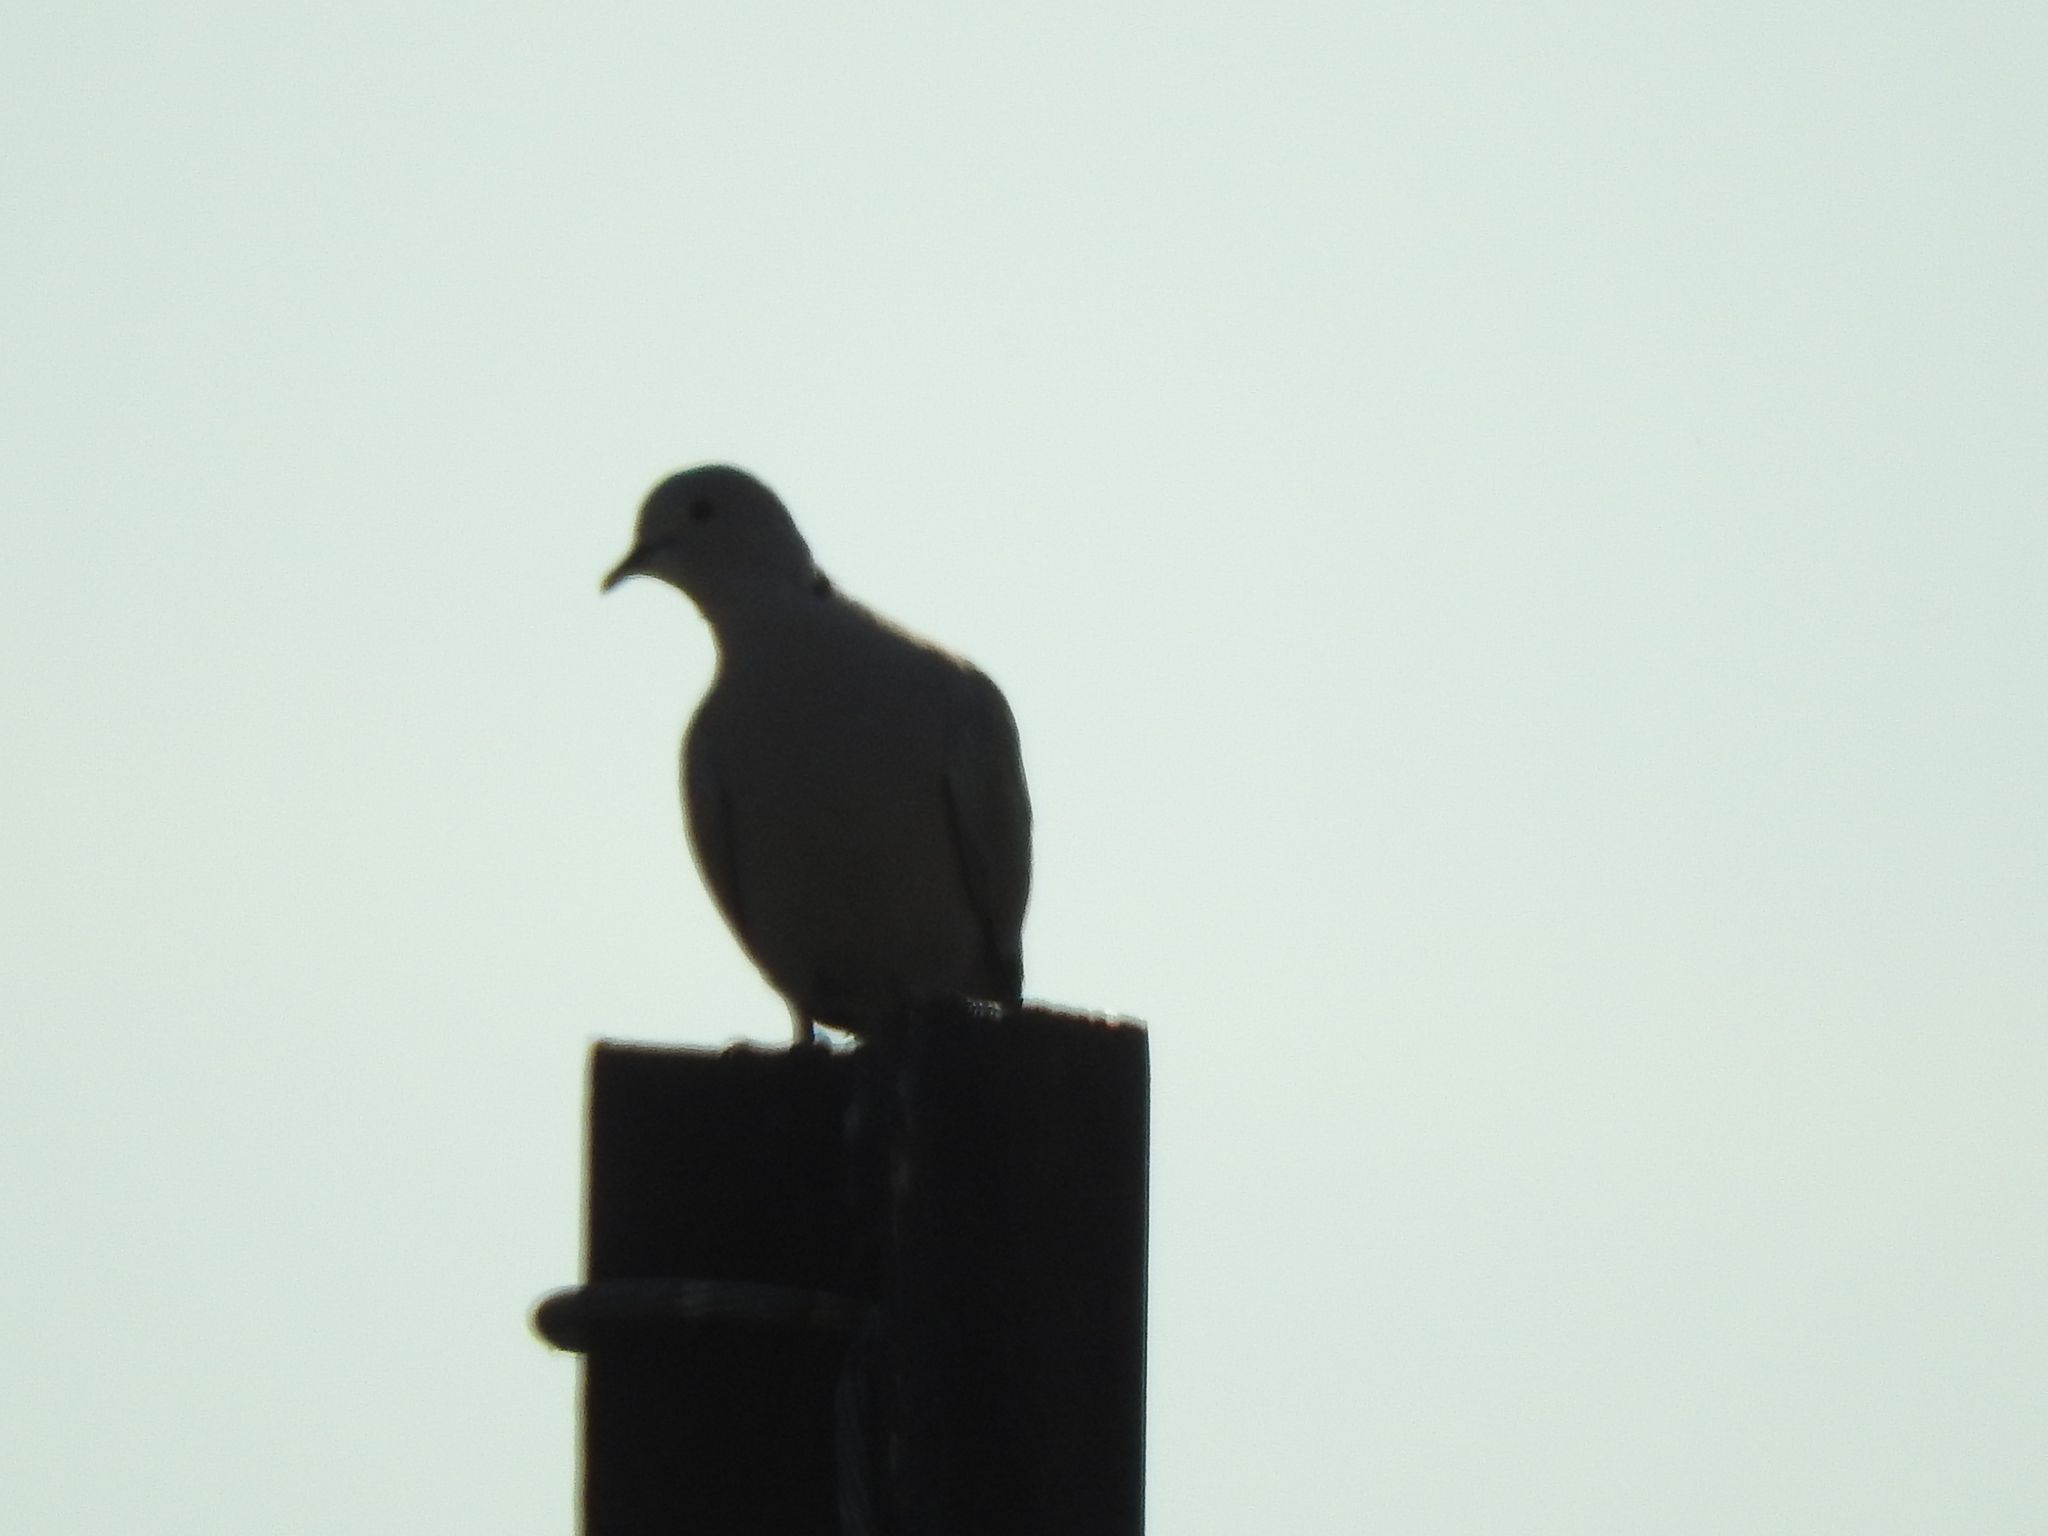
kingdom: Animalia
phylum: Chordata
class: Aves
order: Columbiformes
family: Columbidae
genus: Streptopelia
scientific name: Streptopelia decaocto
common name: Eurasian collared dove
